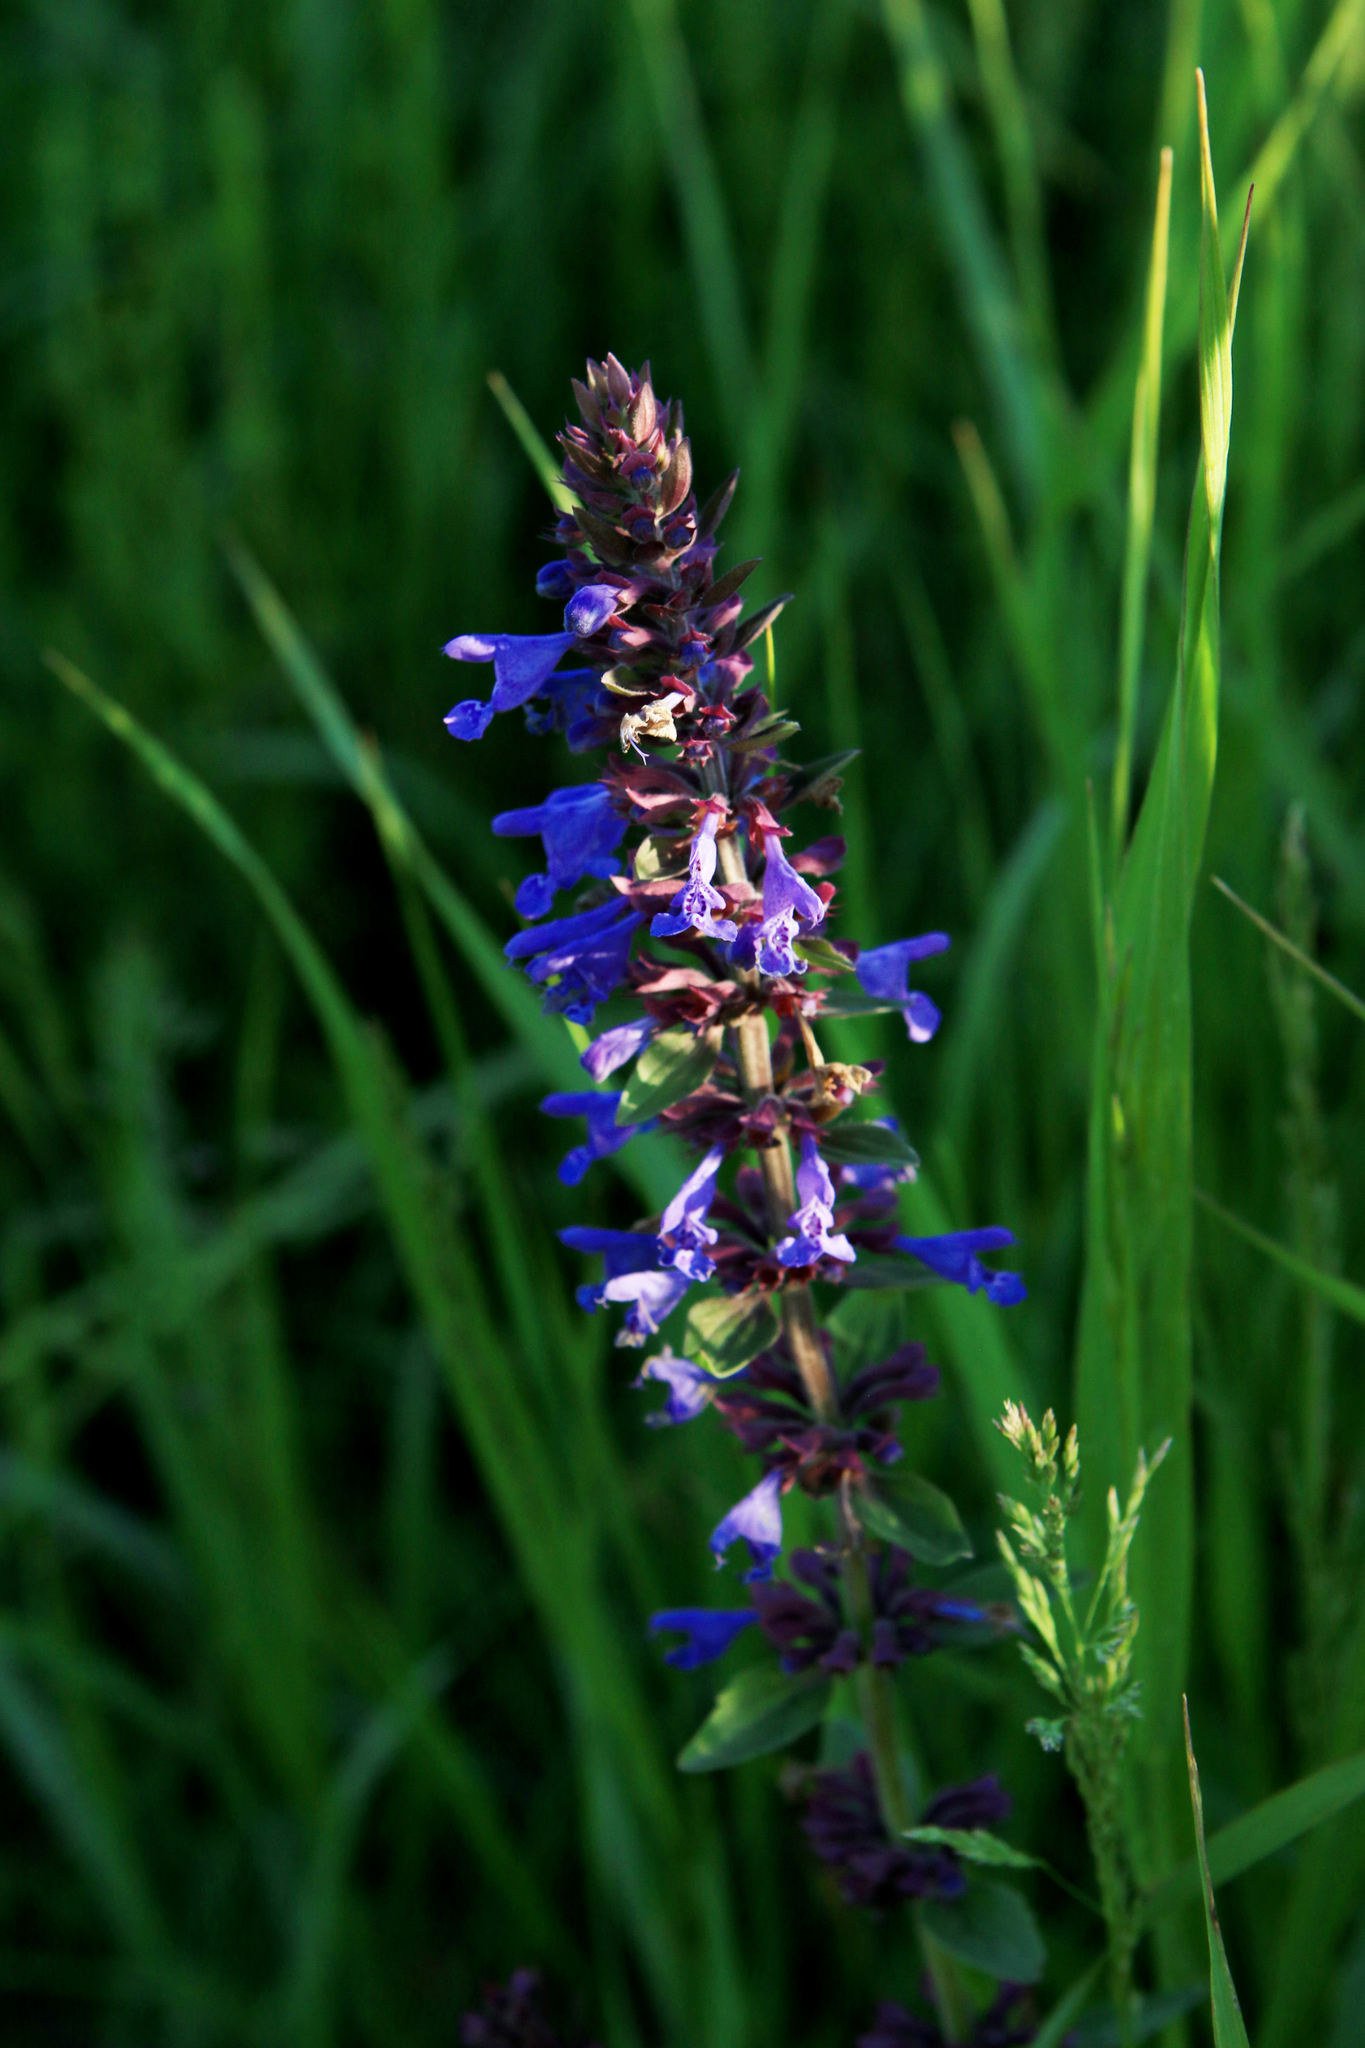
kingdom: Plantae
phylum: Tracheophyta
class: Magnoliopsida
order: Lamiales
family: Lamiaceae
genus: Dracocephalum
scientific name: Dracocephalum nutans
